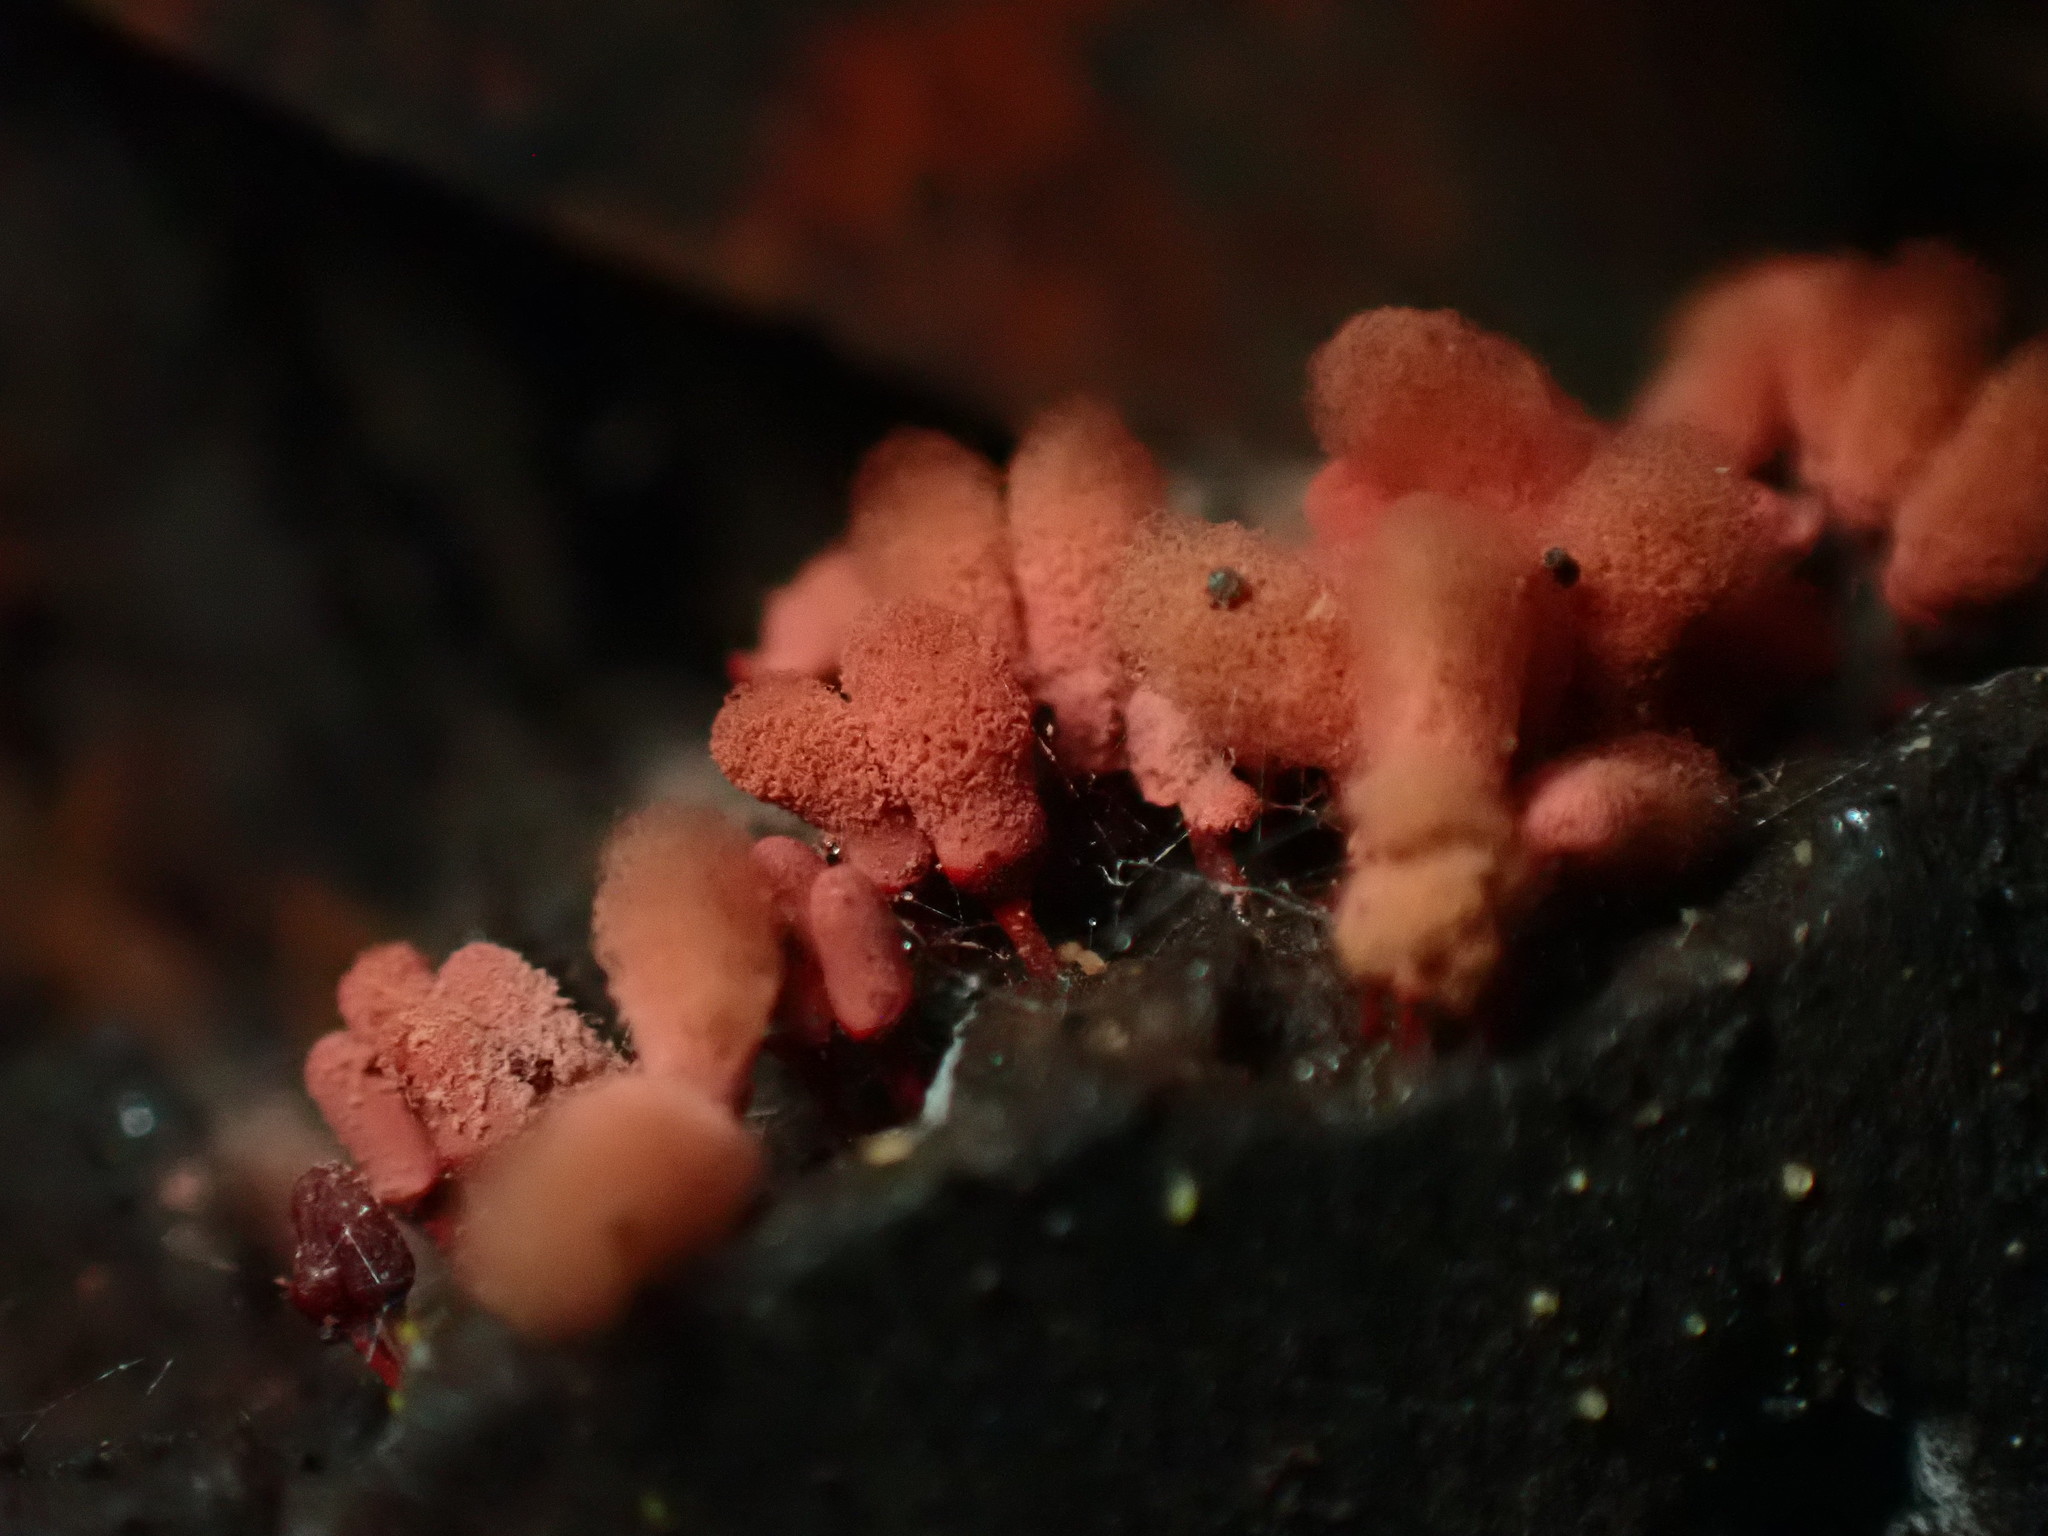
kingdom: Protozoa
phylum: Mycetozoa
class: Myxomycetes
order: Trichiales
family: Arcyriaceae
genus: Arcyria
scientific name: Arcyria denudata
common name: Carnival candy slime mold
